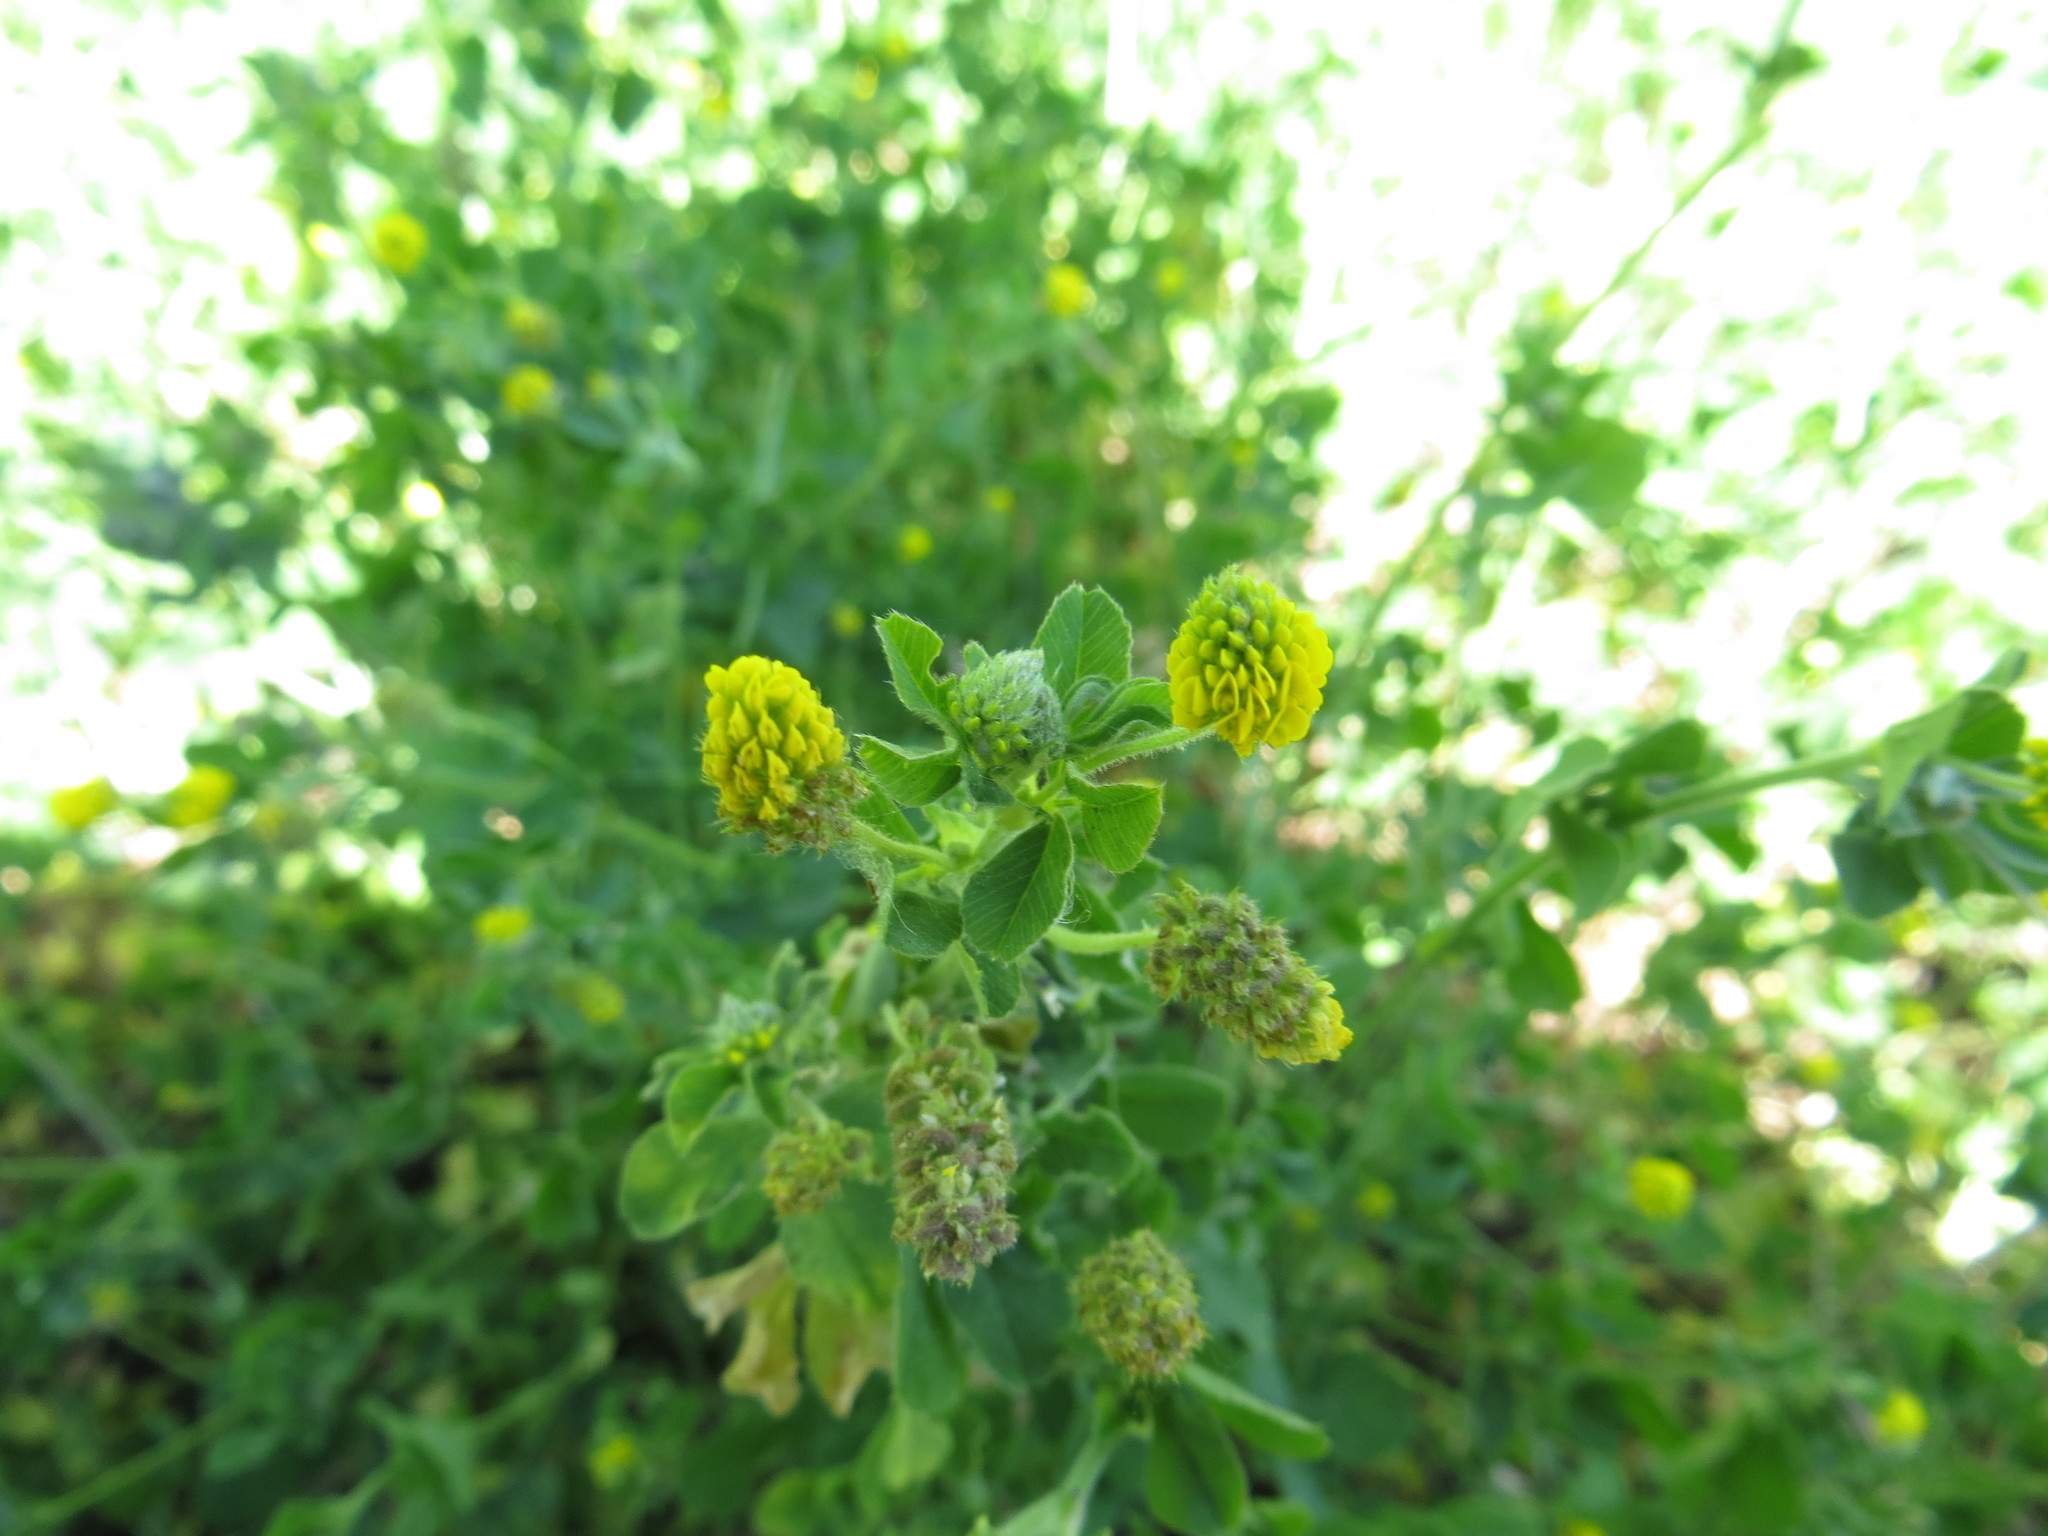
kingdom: Plantae
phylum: Tracheophyta
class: Magnoliopsida
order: Fabales
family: Fabaceae
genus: Medicago
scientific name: Medicago lupulina
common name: Black medick
